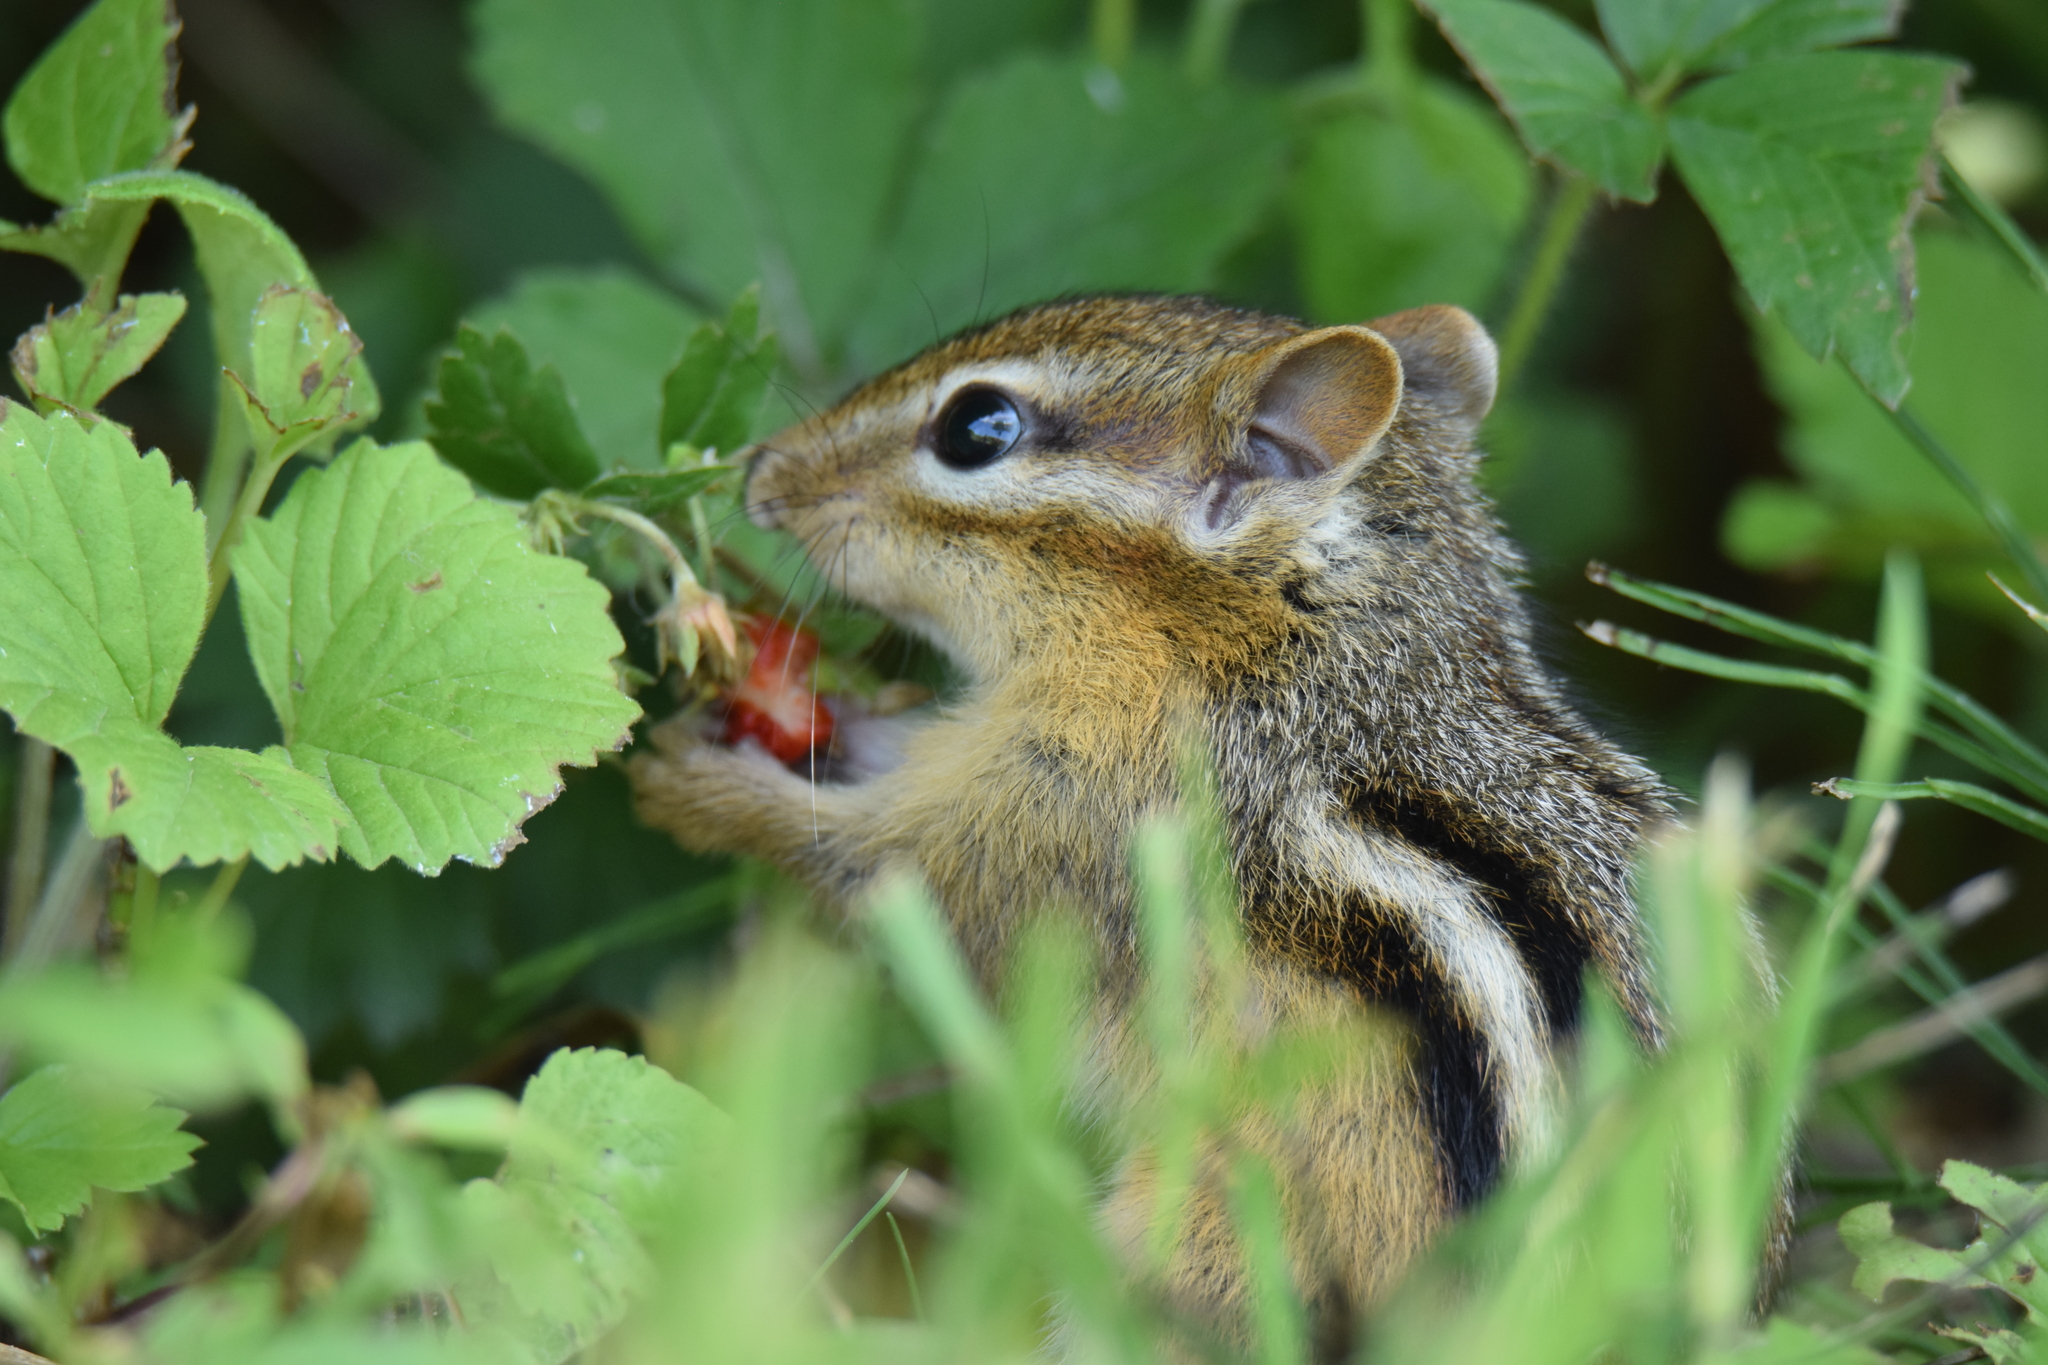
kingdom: Animalia
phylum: Chordata
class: Mammalia
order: Rodentia
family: Sciuridae
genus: Tamias
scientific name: Tamias striatus
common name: Eastern chipmunk
